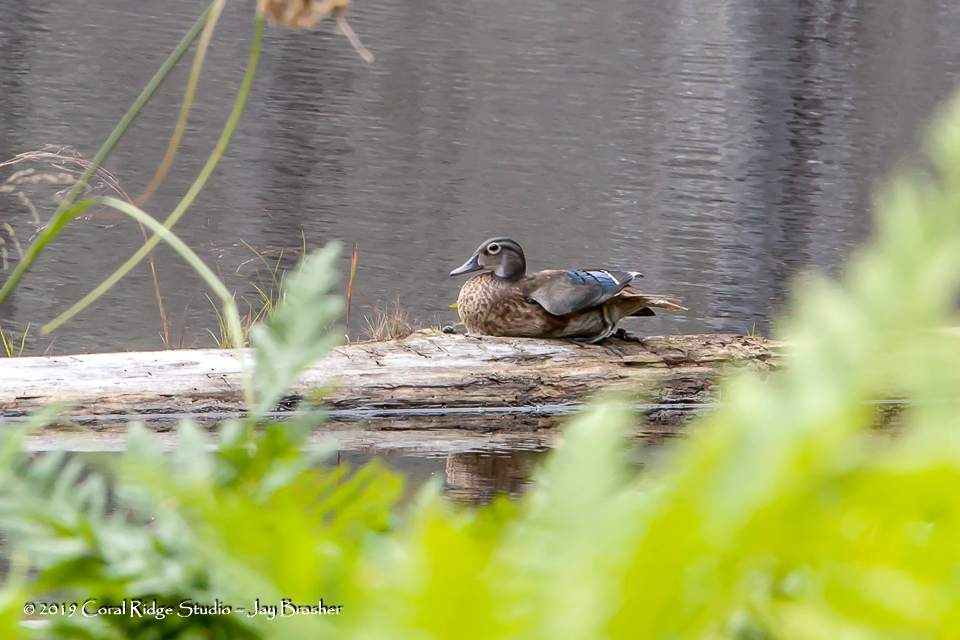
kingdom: Animalia
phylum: Chordata
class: Aves
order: Anseriformes
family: Anatidae
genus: Aix
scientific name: Aix sponsa
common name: Wood duck
